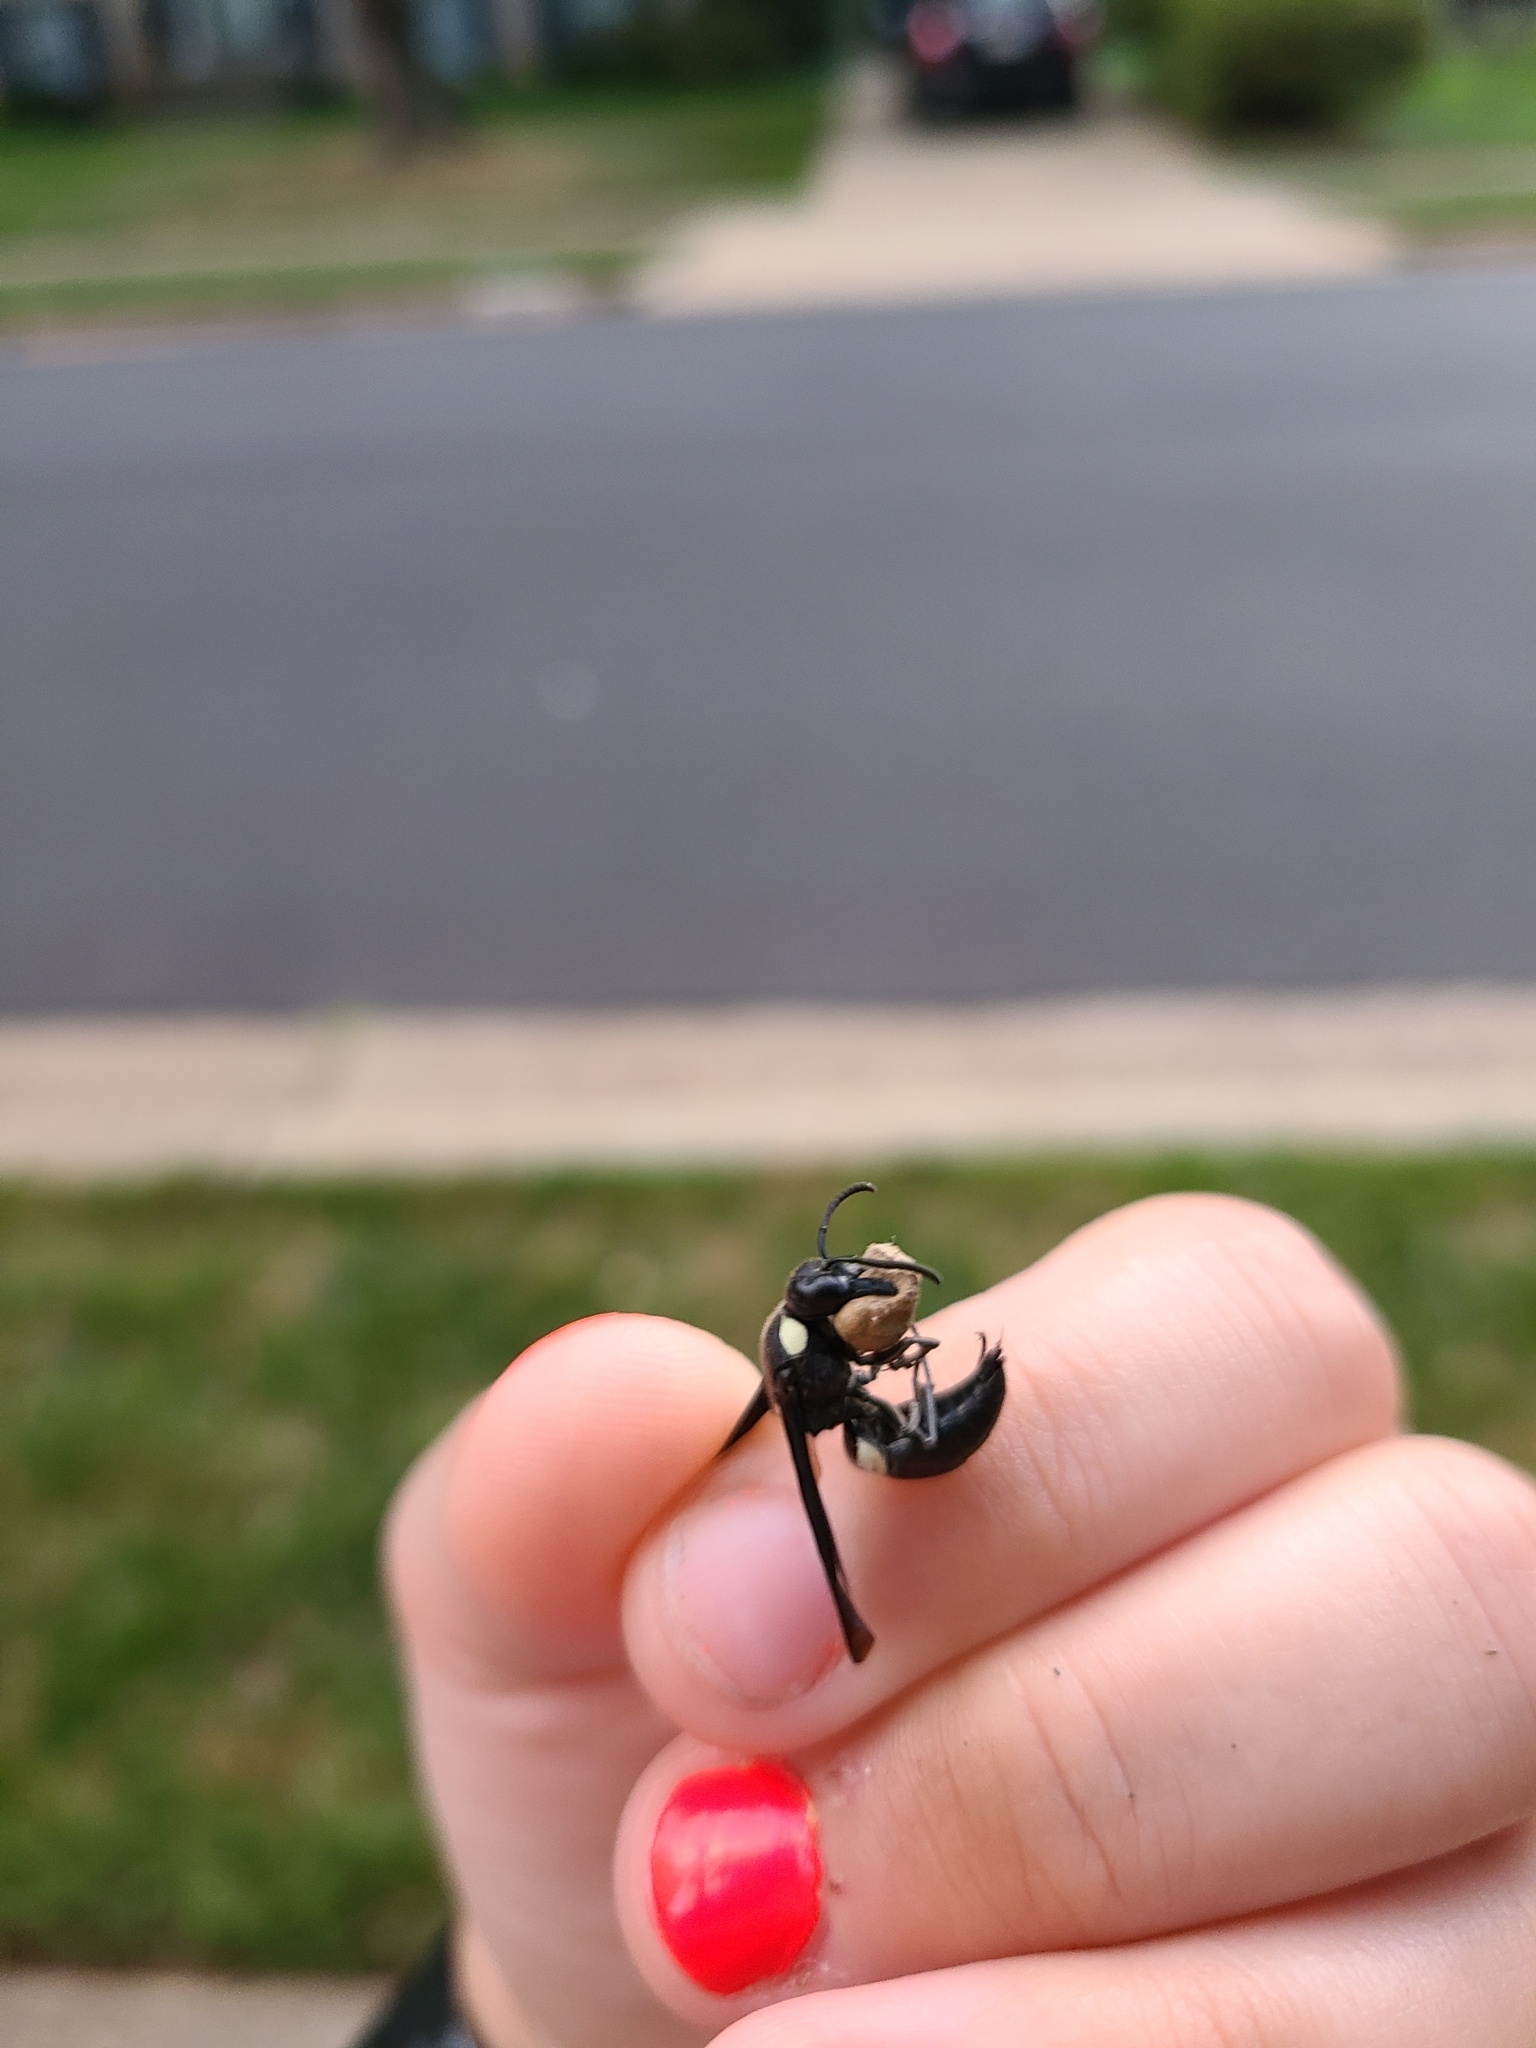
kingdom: Animalia
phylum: Arthropoda
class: Insecta
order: Hymenoptera
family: Eumenidae
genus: Monobia
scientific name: Monobia quadridens
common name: Four-toothed mason wasp
